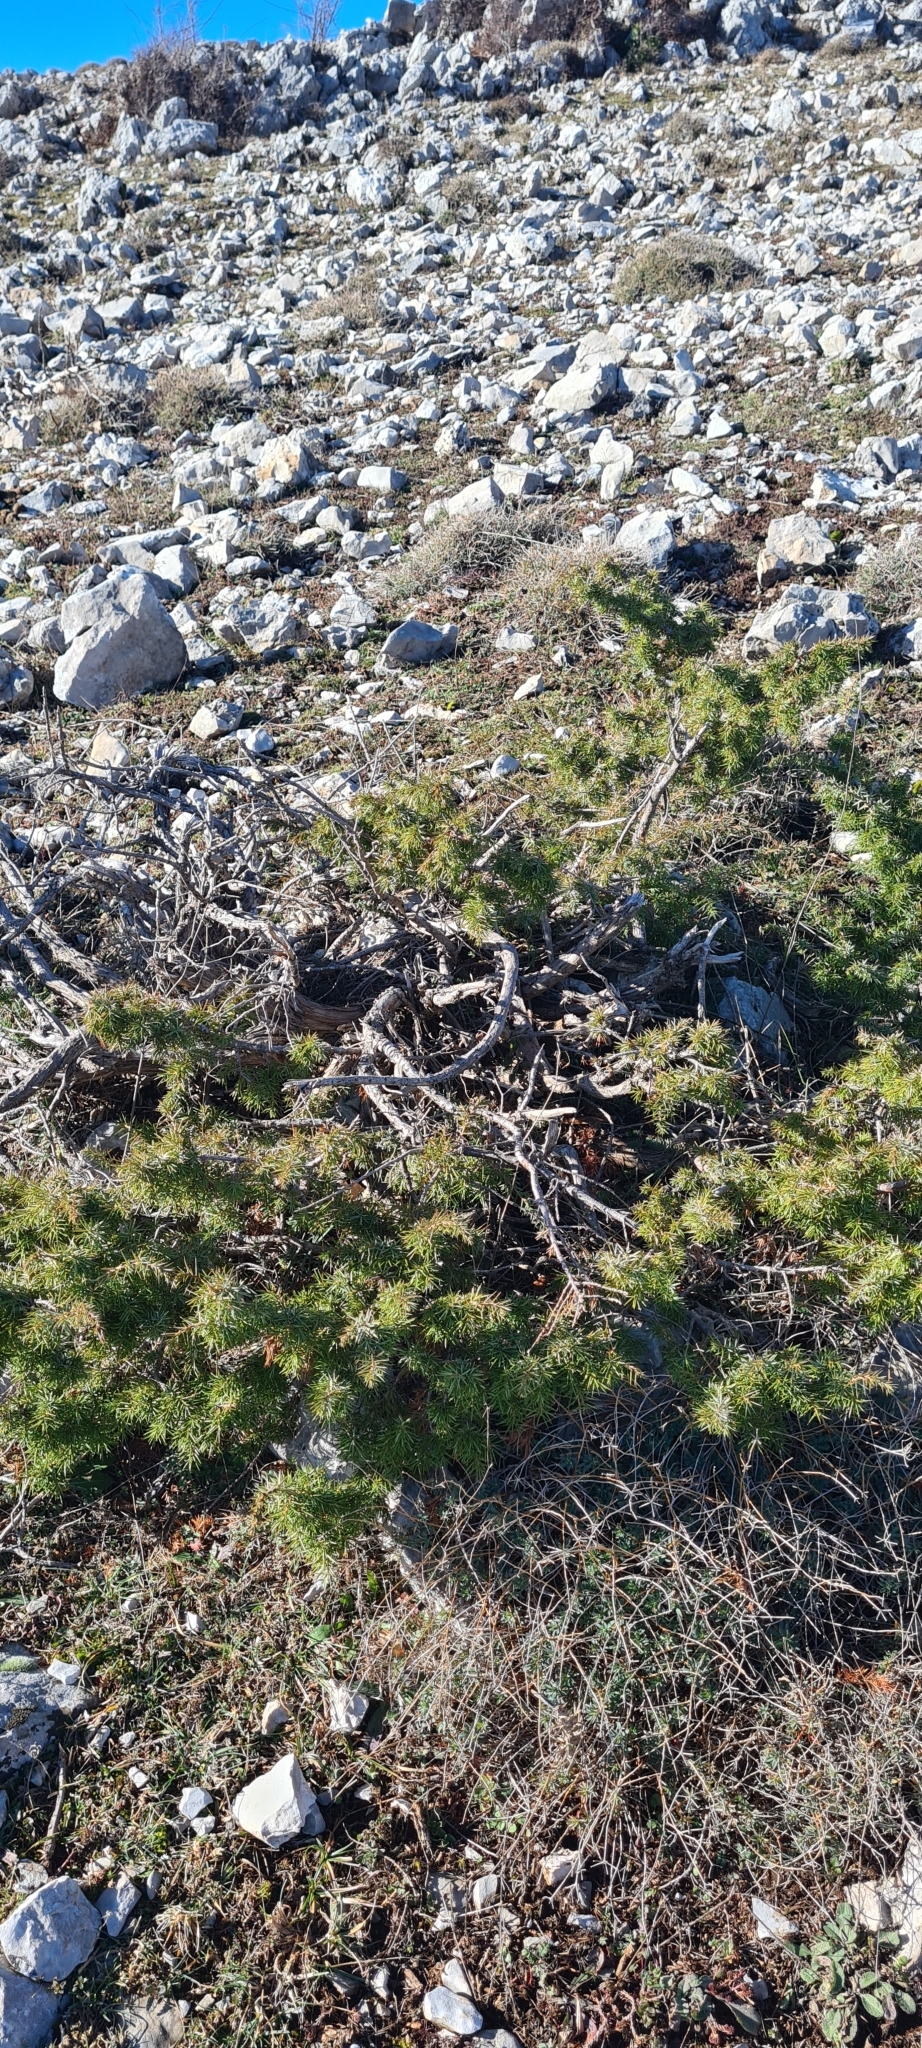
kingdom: Plantae
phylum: Tracheophyta
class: Pinopsida
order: Pinales
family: Cupressaceae
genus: Juniperus
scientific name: Juniperus communis
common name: Common juniper
